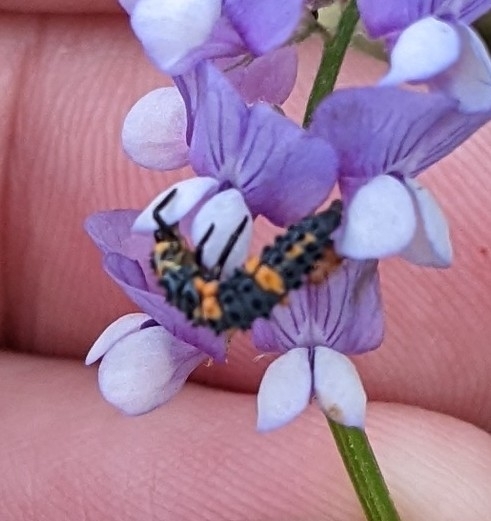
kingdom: Animalia
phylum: Arthropoda
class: Insecta
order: Coleoptera
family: Coccinellidae
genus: Hippodamia
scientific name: Hippodamia convergens
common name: Convergent lady beetle
